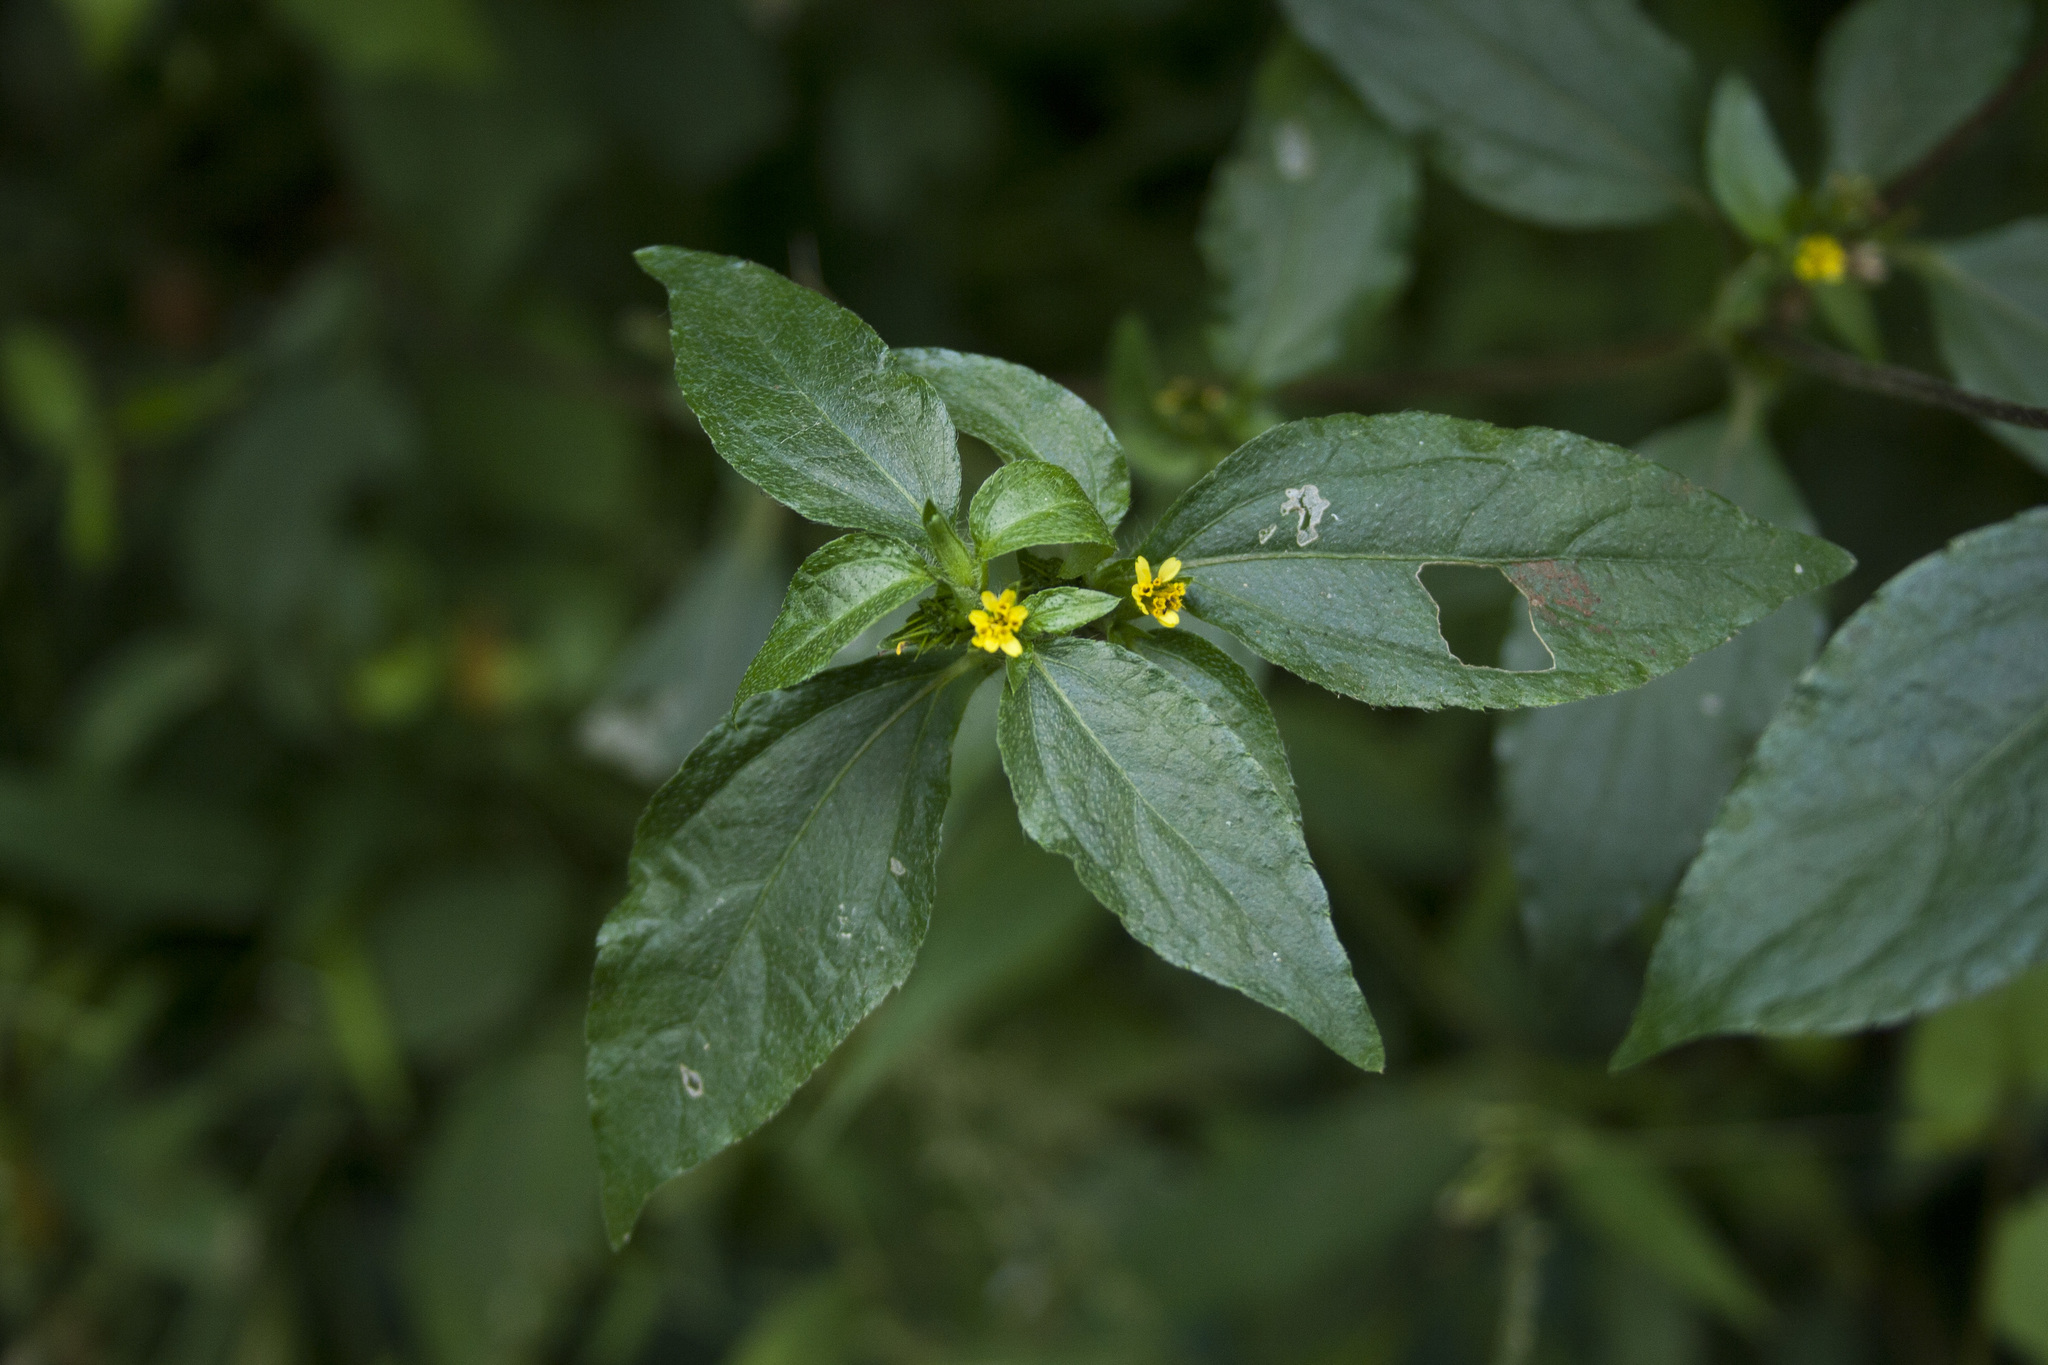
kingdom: Plantae
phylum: Tracheophyta
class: Magnoliopsida
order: Asterales
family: Asteraceae
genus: Synedrella
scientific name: Synedrella nodiflora
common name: Nodeweed
